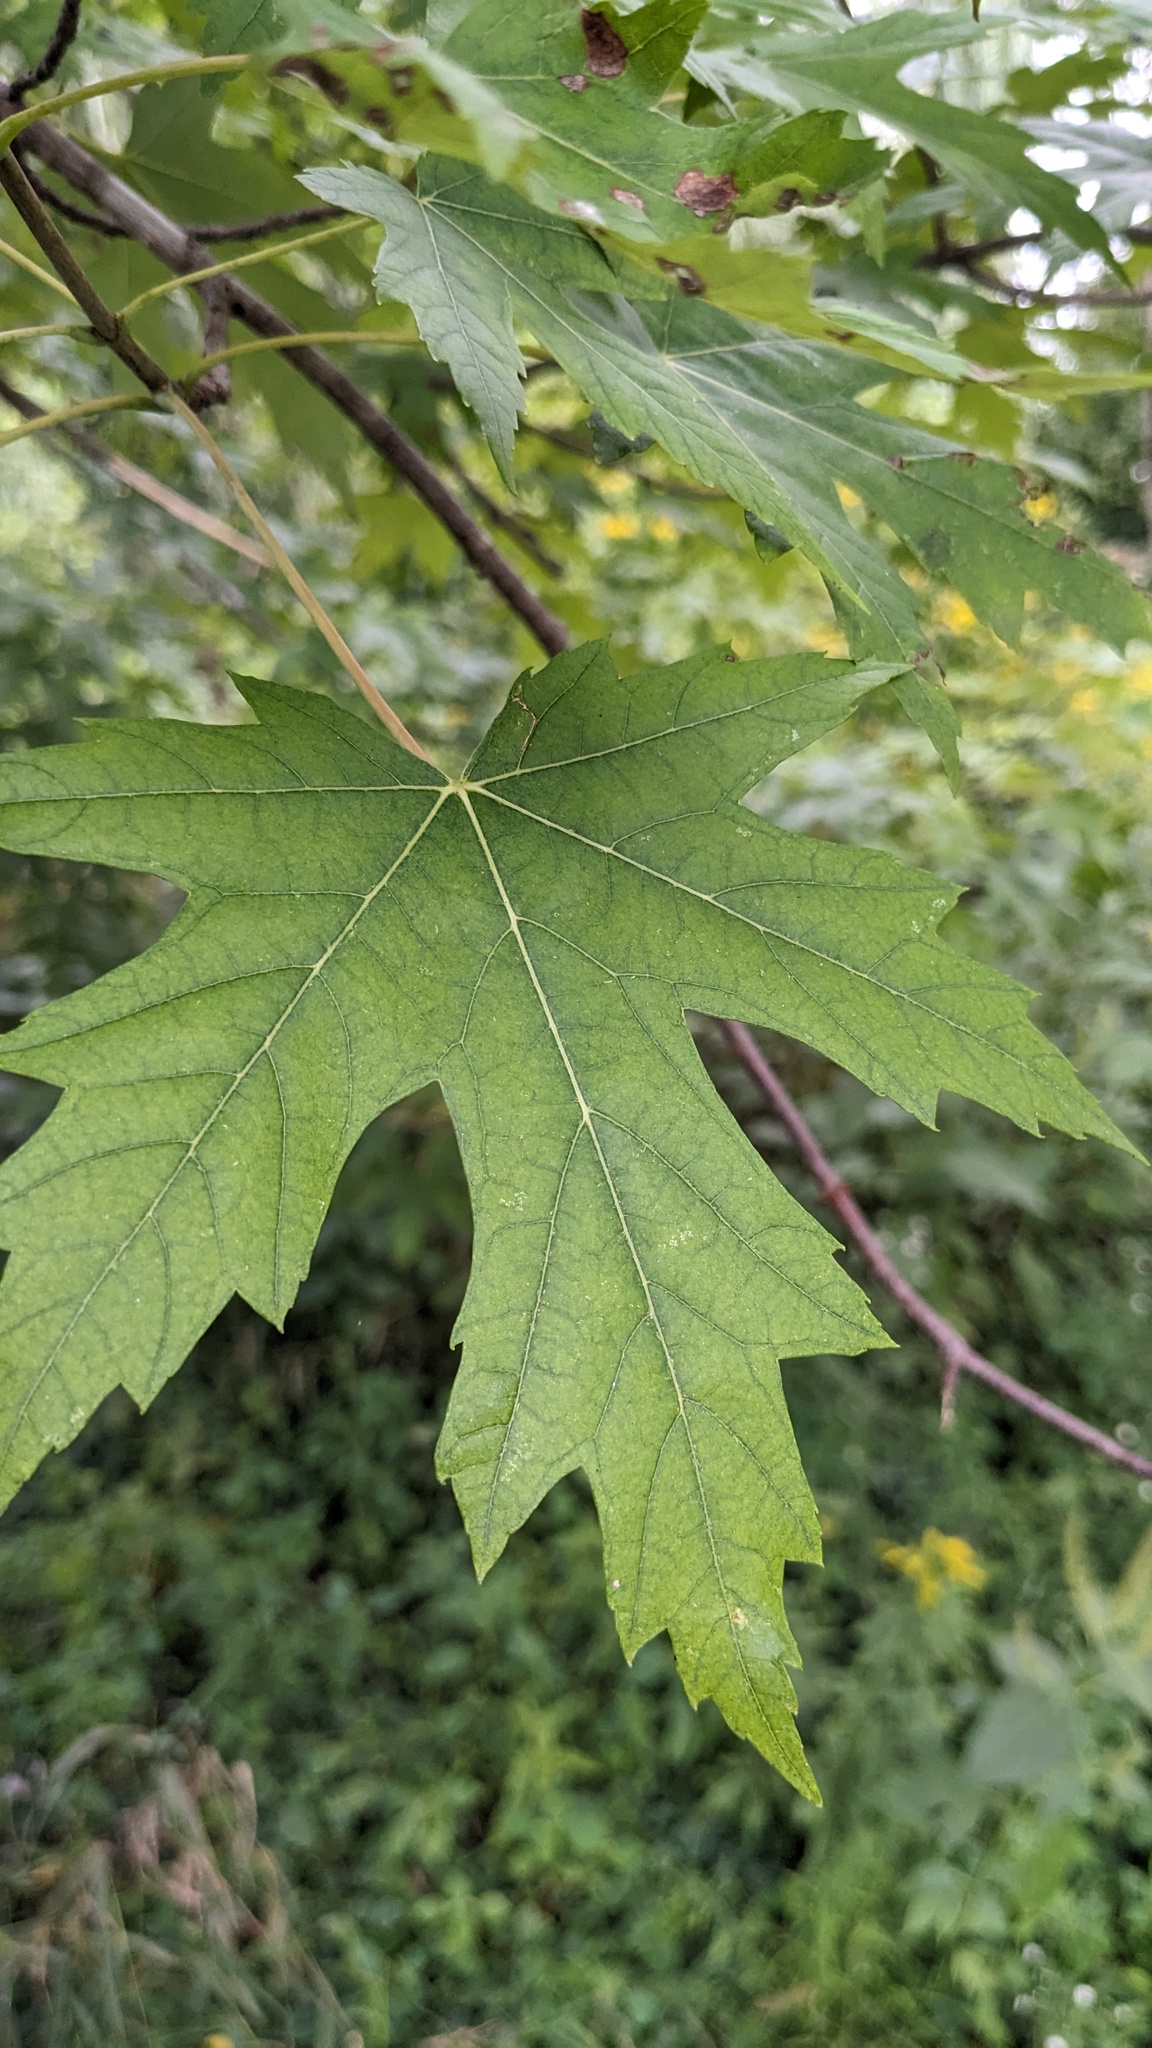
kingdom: Plantae
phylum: Tracheophyta
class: Magnoliopsida
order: Sapindales
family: Sapindaceae
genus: Acer
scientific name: Acer saccharinum
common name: Silver maple
